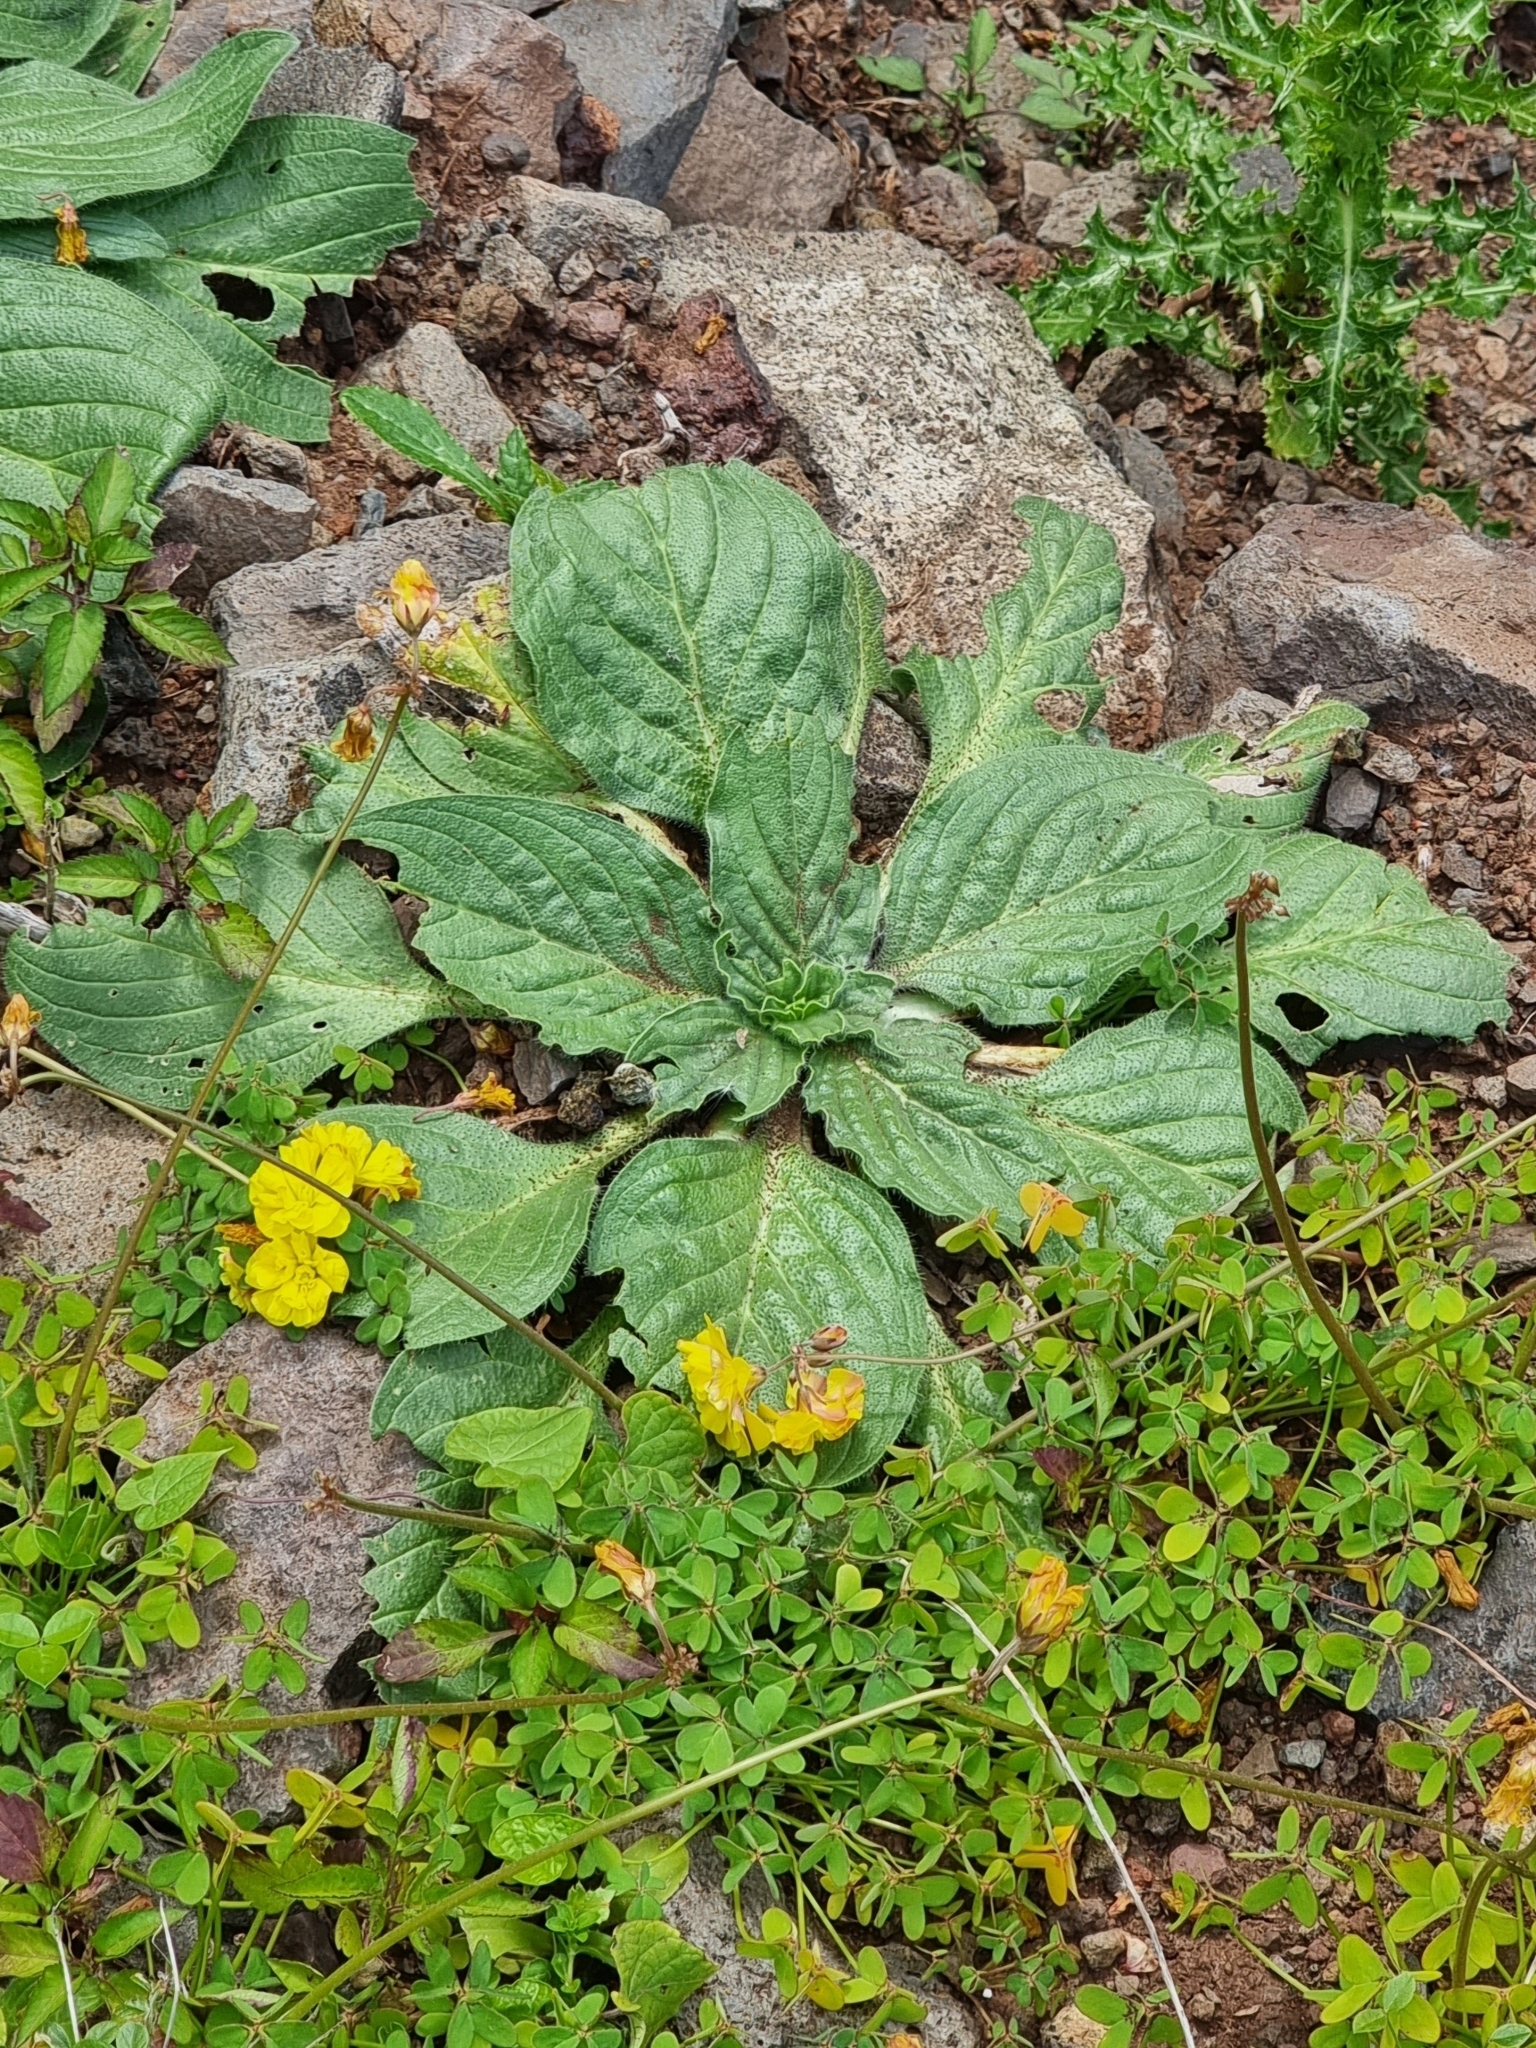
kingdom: Plantae
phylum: Tracheophyta
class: Magnoliopsida
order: Boraginales
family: Boraginaceae
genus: Echium
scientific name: Echium plantagineum
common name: Purple viper's-bugloss
